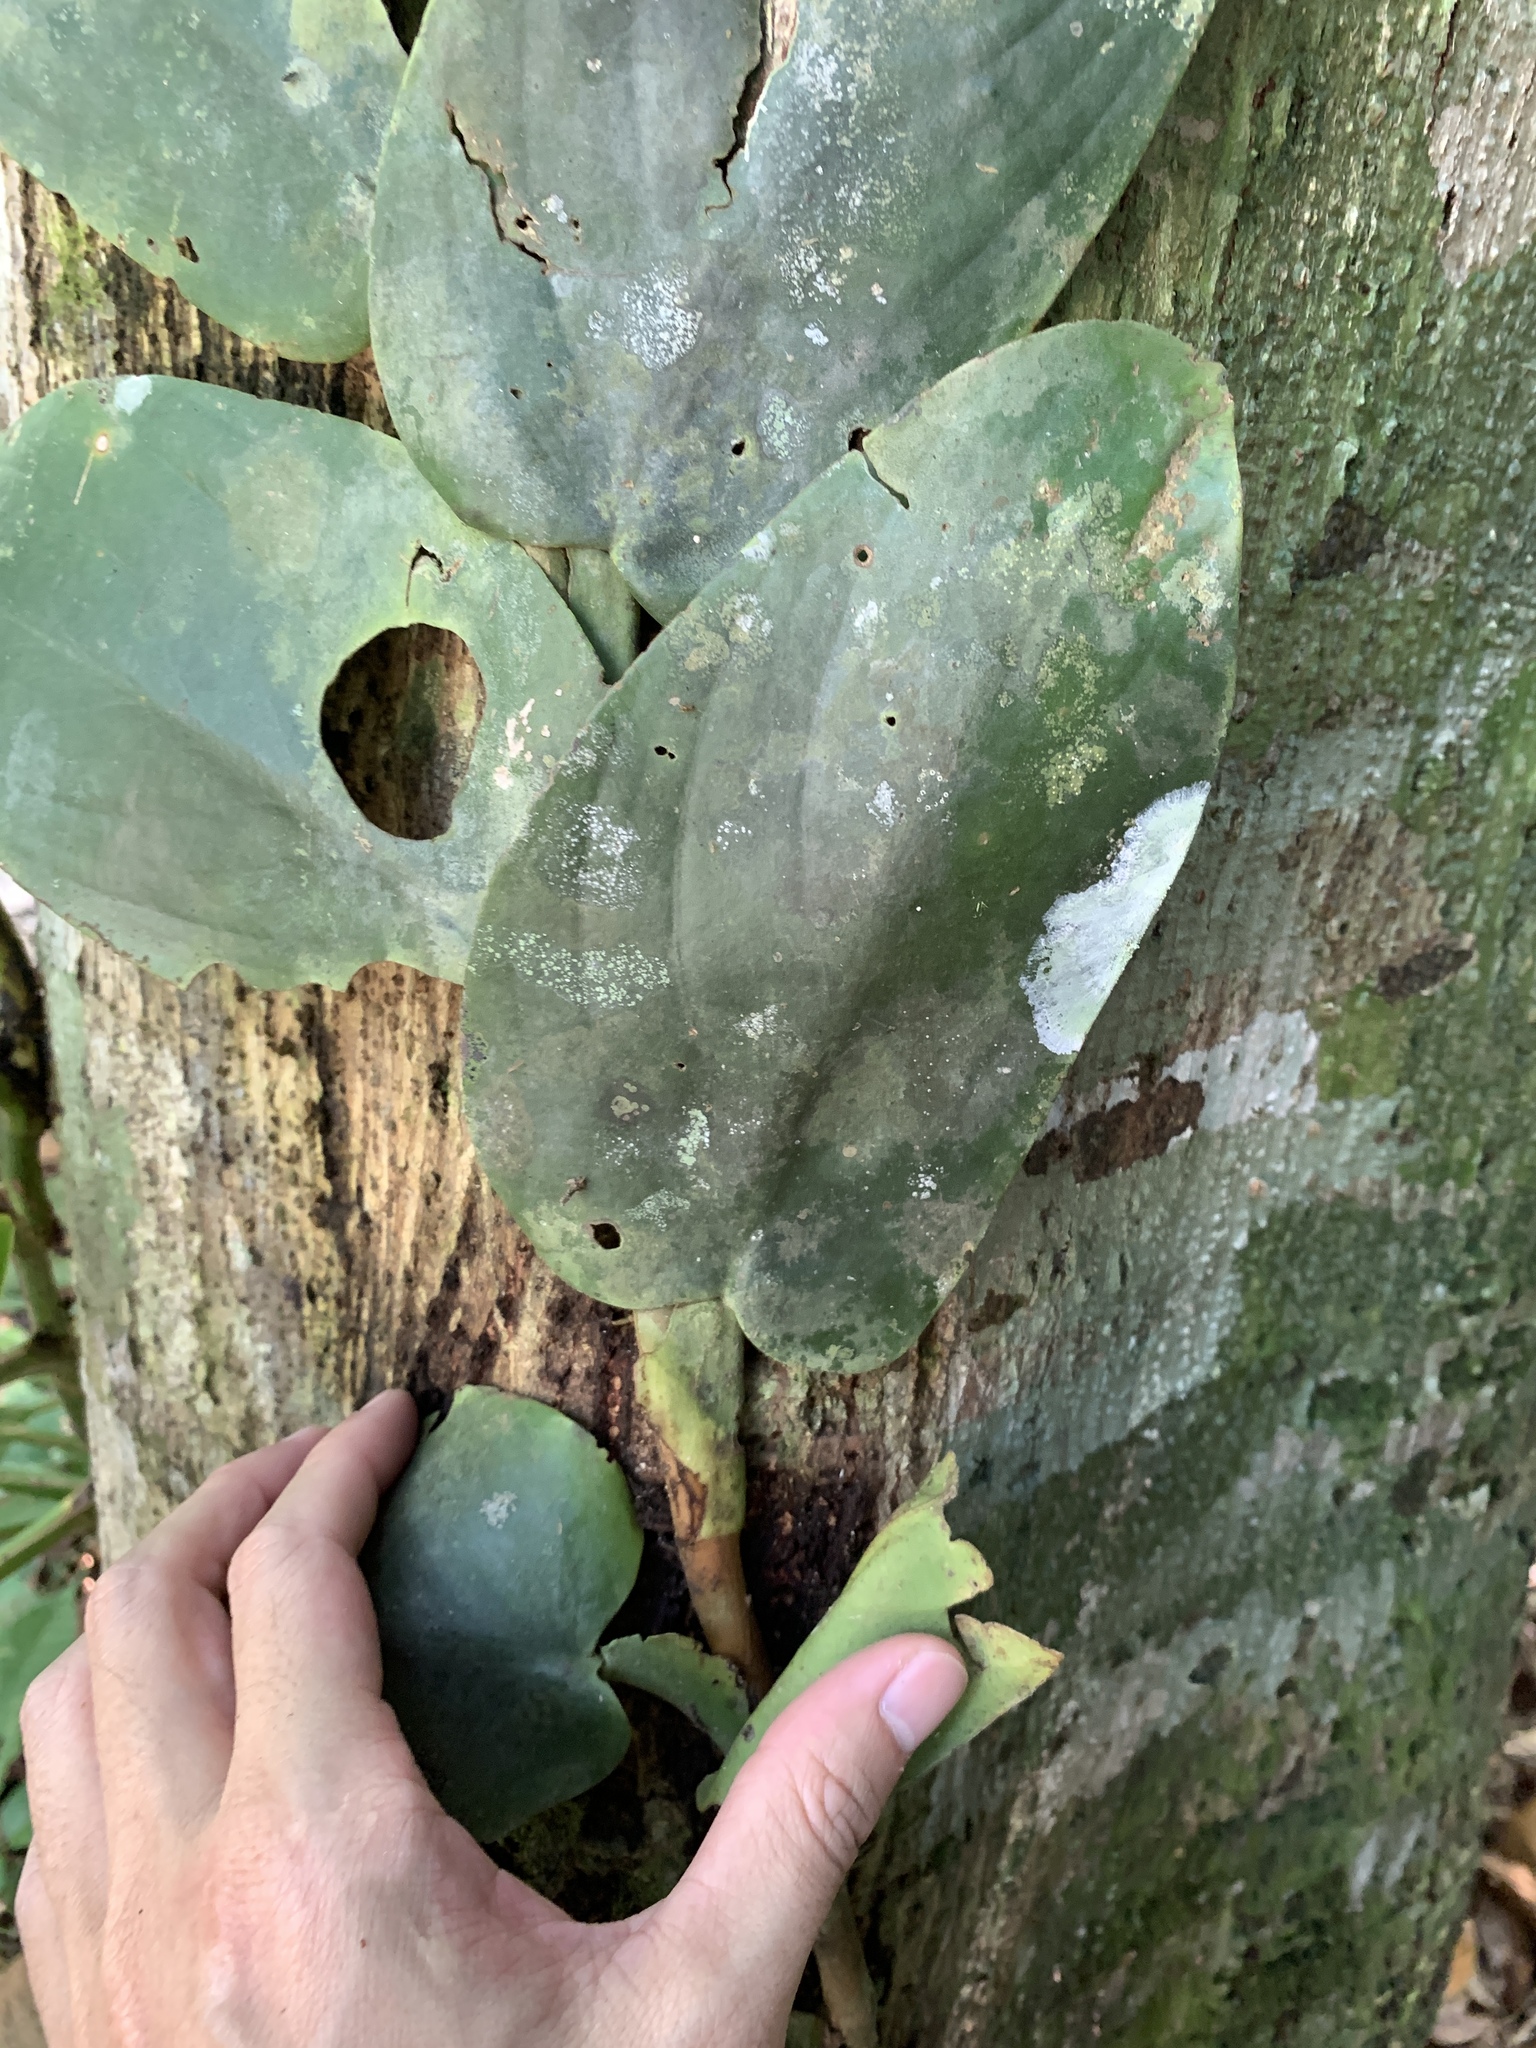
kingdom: Plantae
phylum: Tracheophyta
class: Liliopsida
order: Alismatales
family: Araceae
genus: Rhaphidophora
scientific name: Rhaphidophora korthalsii
